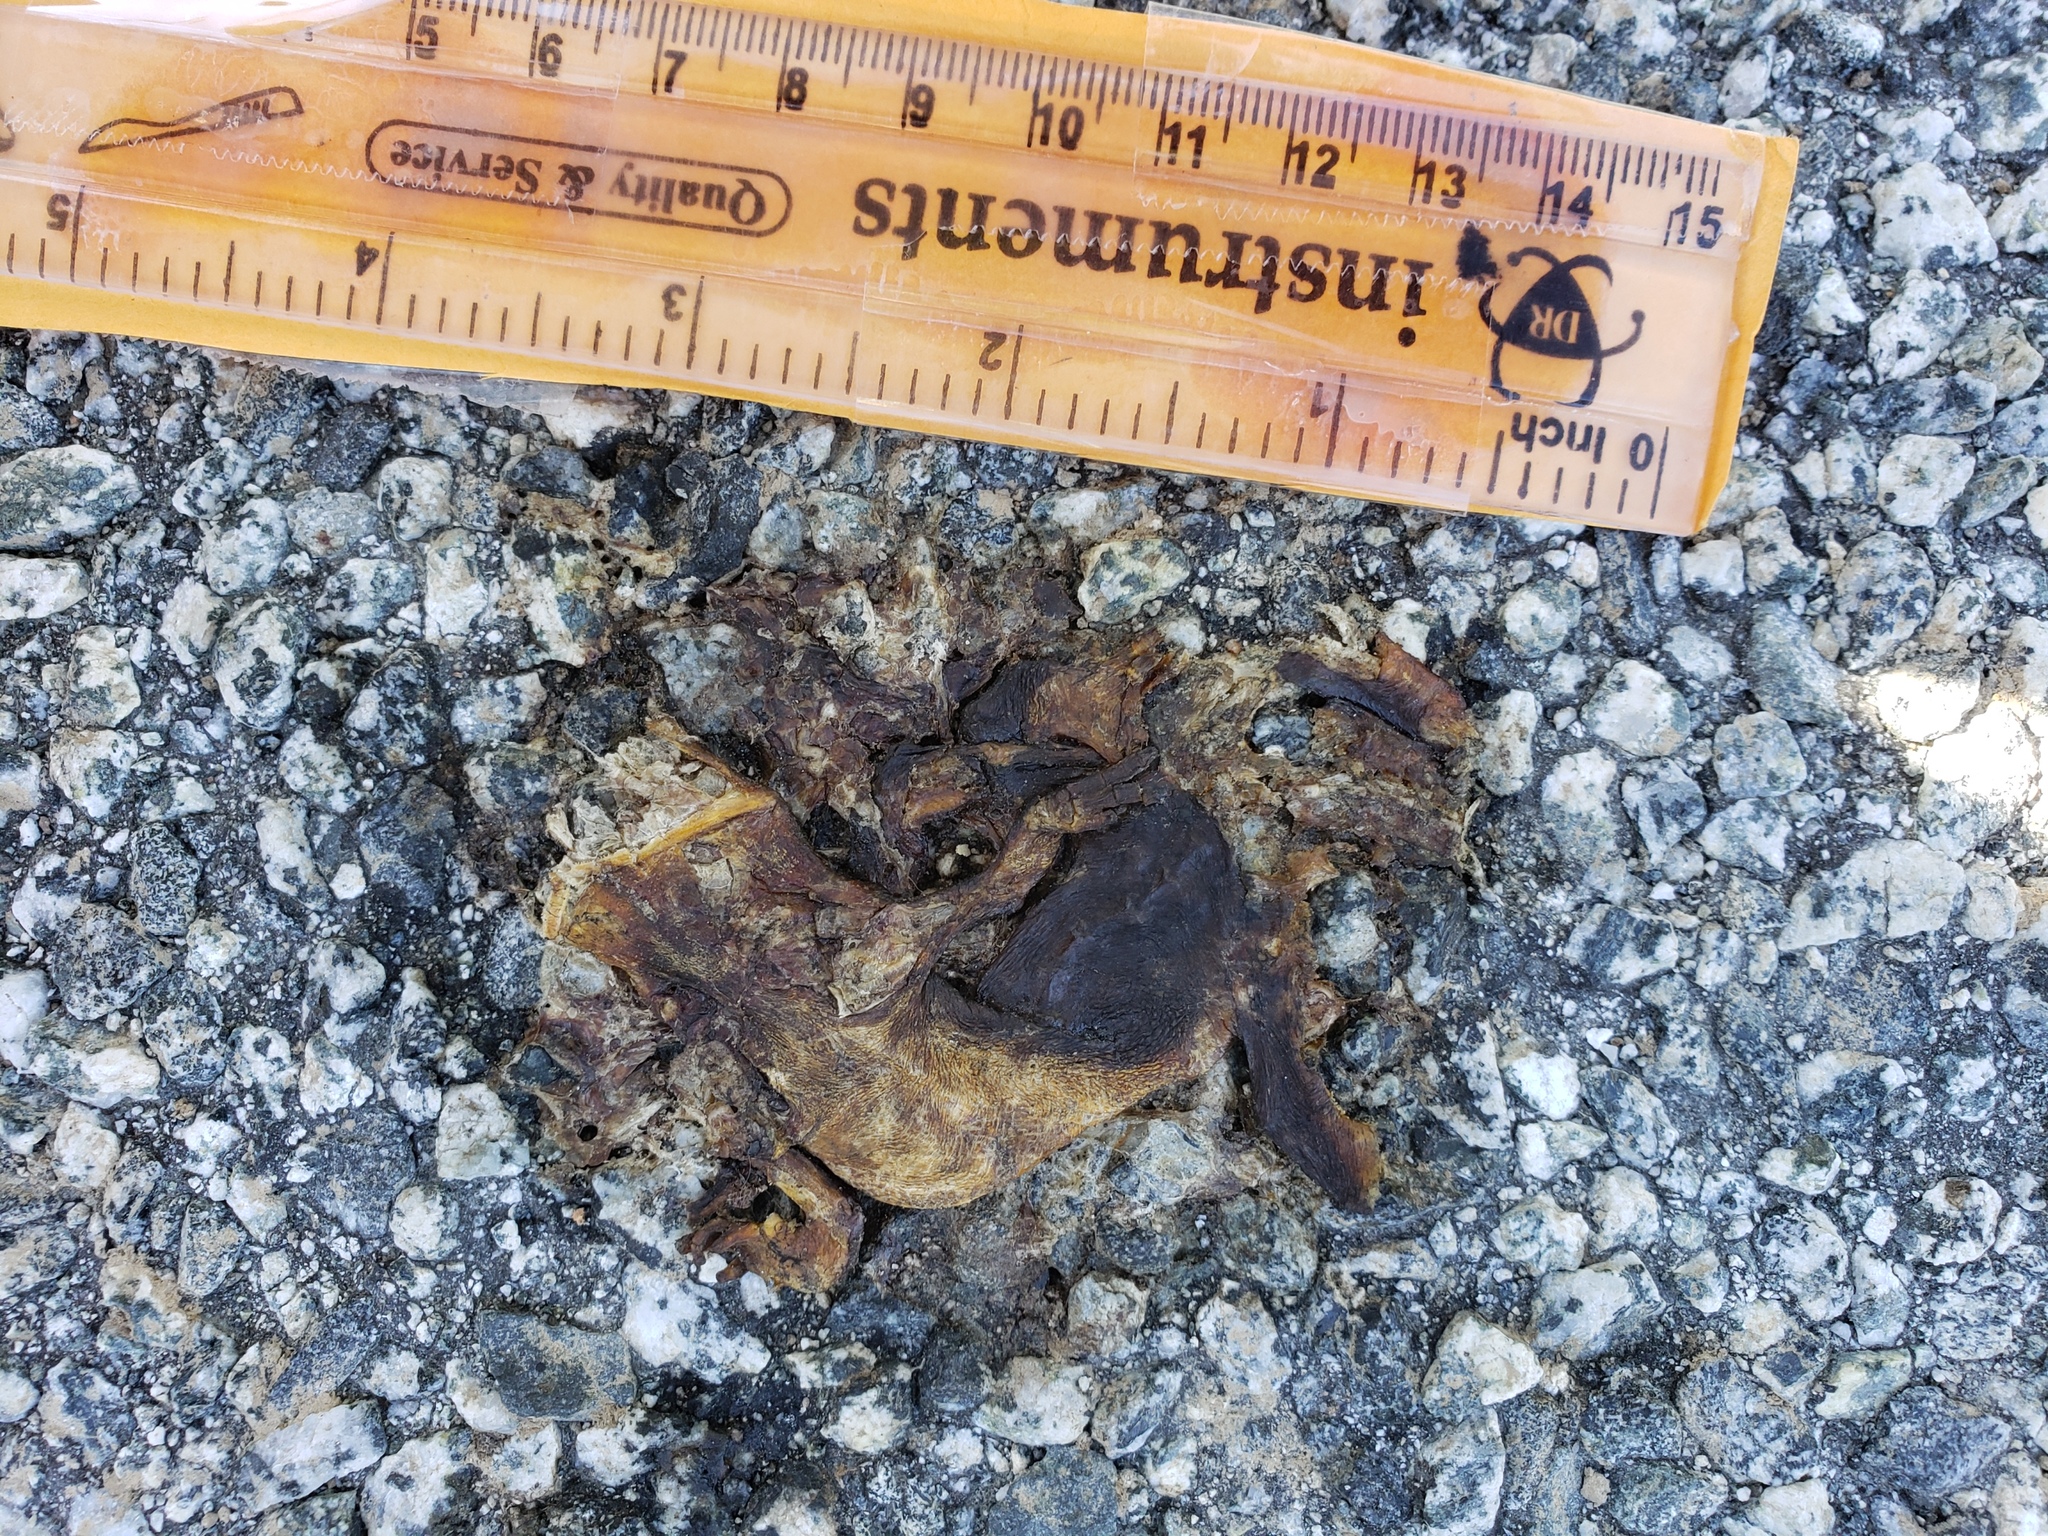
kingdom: Animalia
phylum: Chordata
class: Amphibia
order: Caudata
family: Salamandridae
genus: Taricha
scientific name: Taricha
